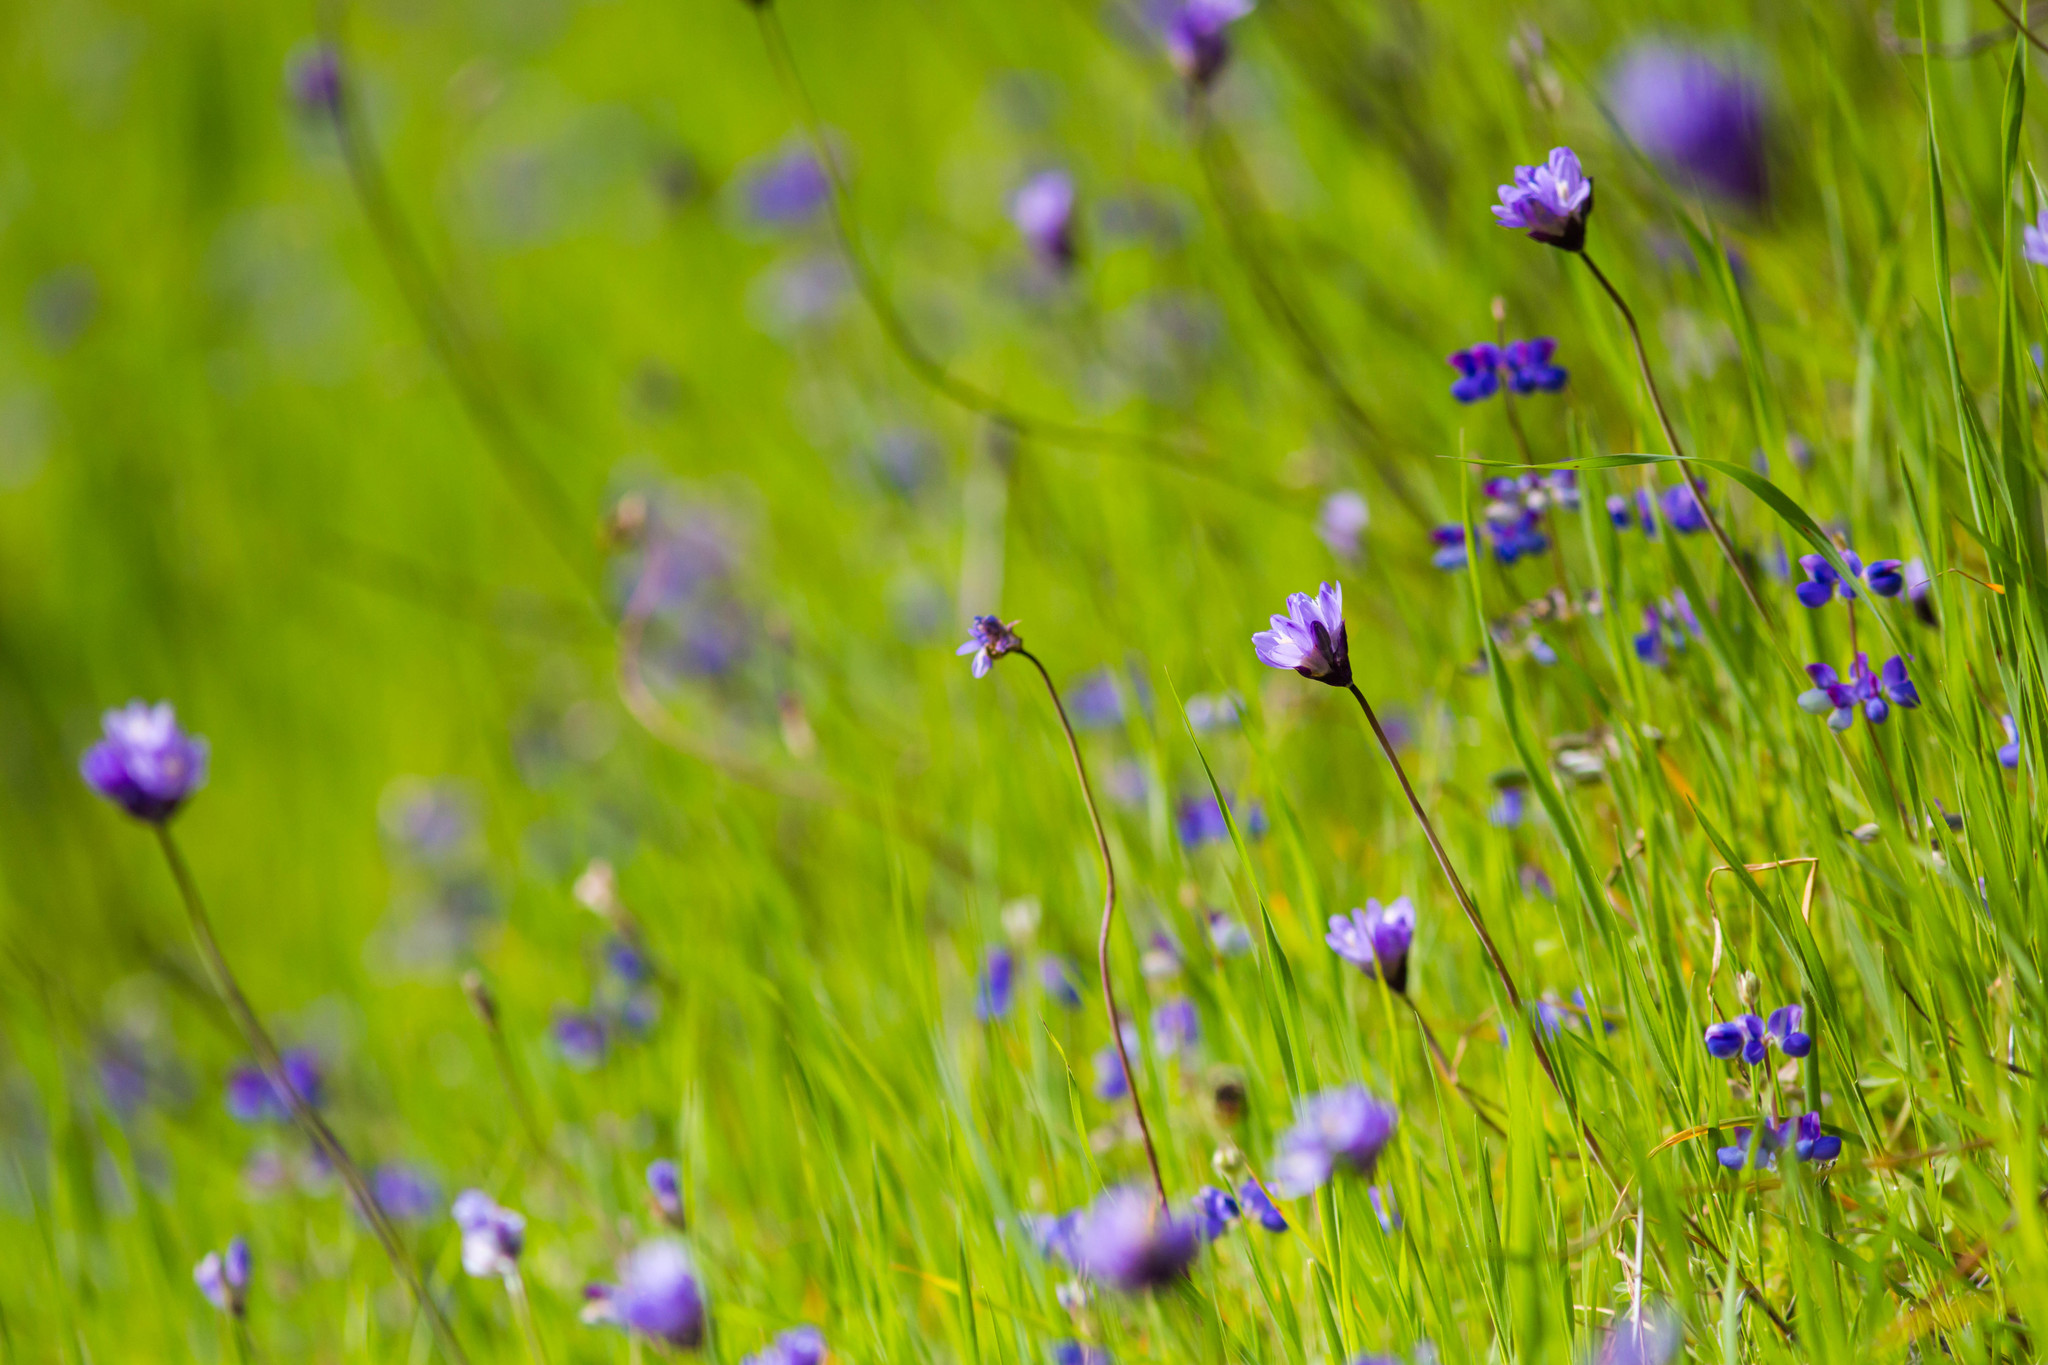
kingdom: Plantae
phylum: Tracheophyta
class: Liliopsida
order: Asparagales
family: Asparagaceae
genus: Dipterostemon
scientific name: Dipterostemon capitatus
